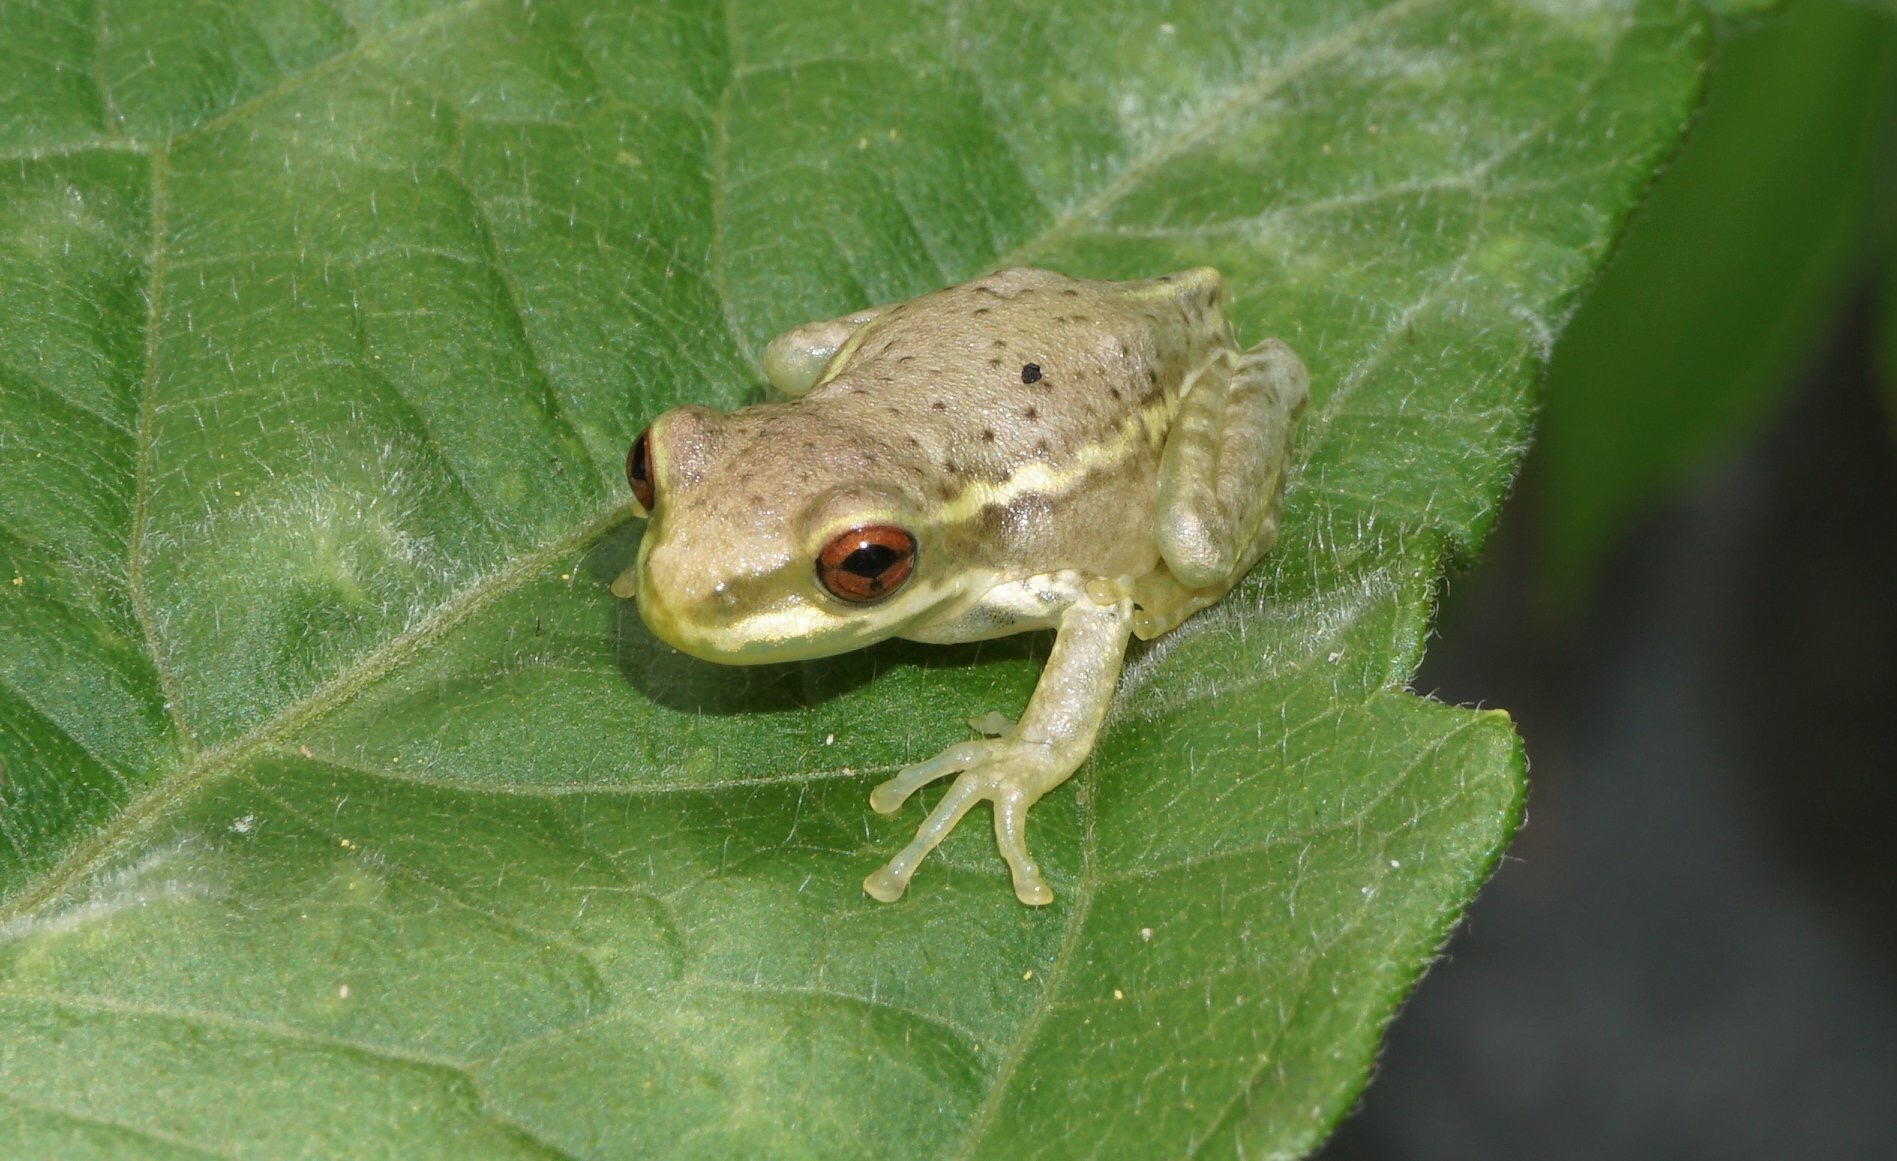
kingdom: Animalia
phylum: Chordata
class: Amphibia
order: Anura
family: Hylidae
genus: Osteopilus
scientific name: Osteopilus septentrionalis
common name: Cuban treefrog
